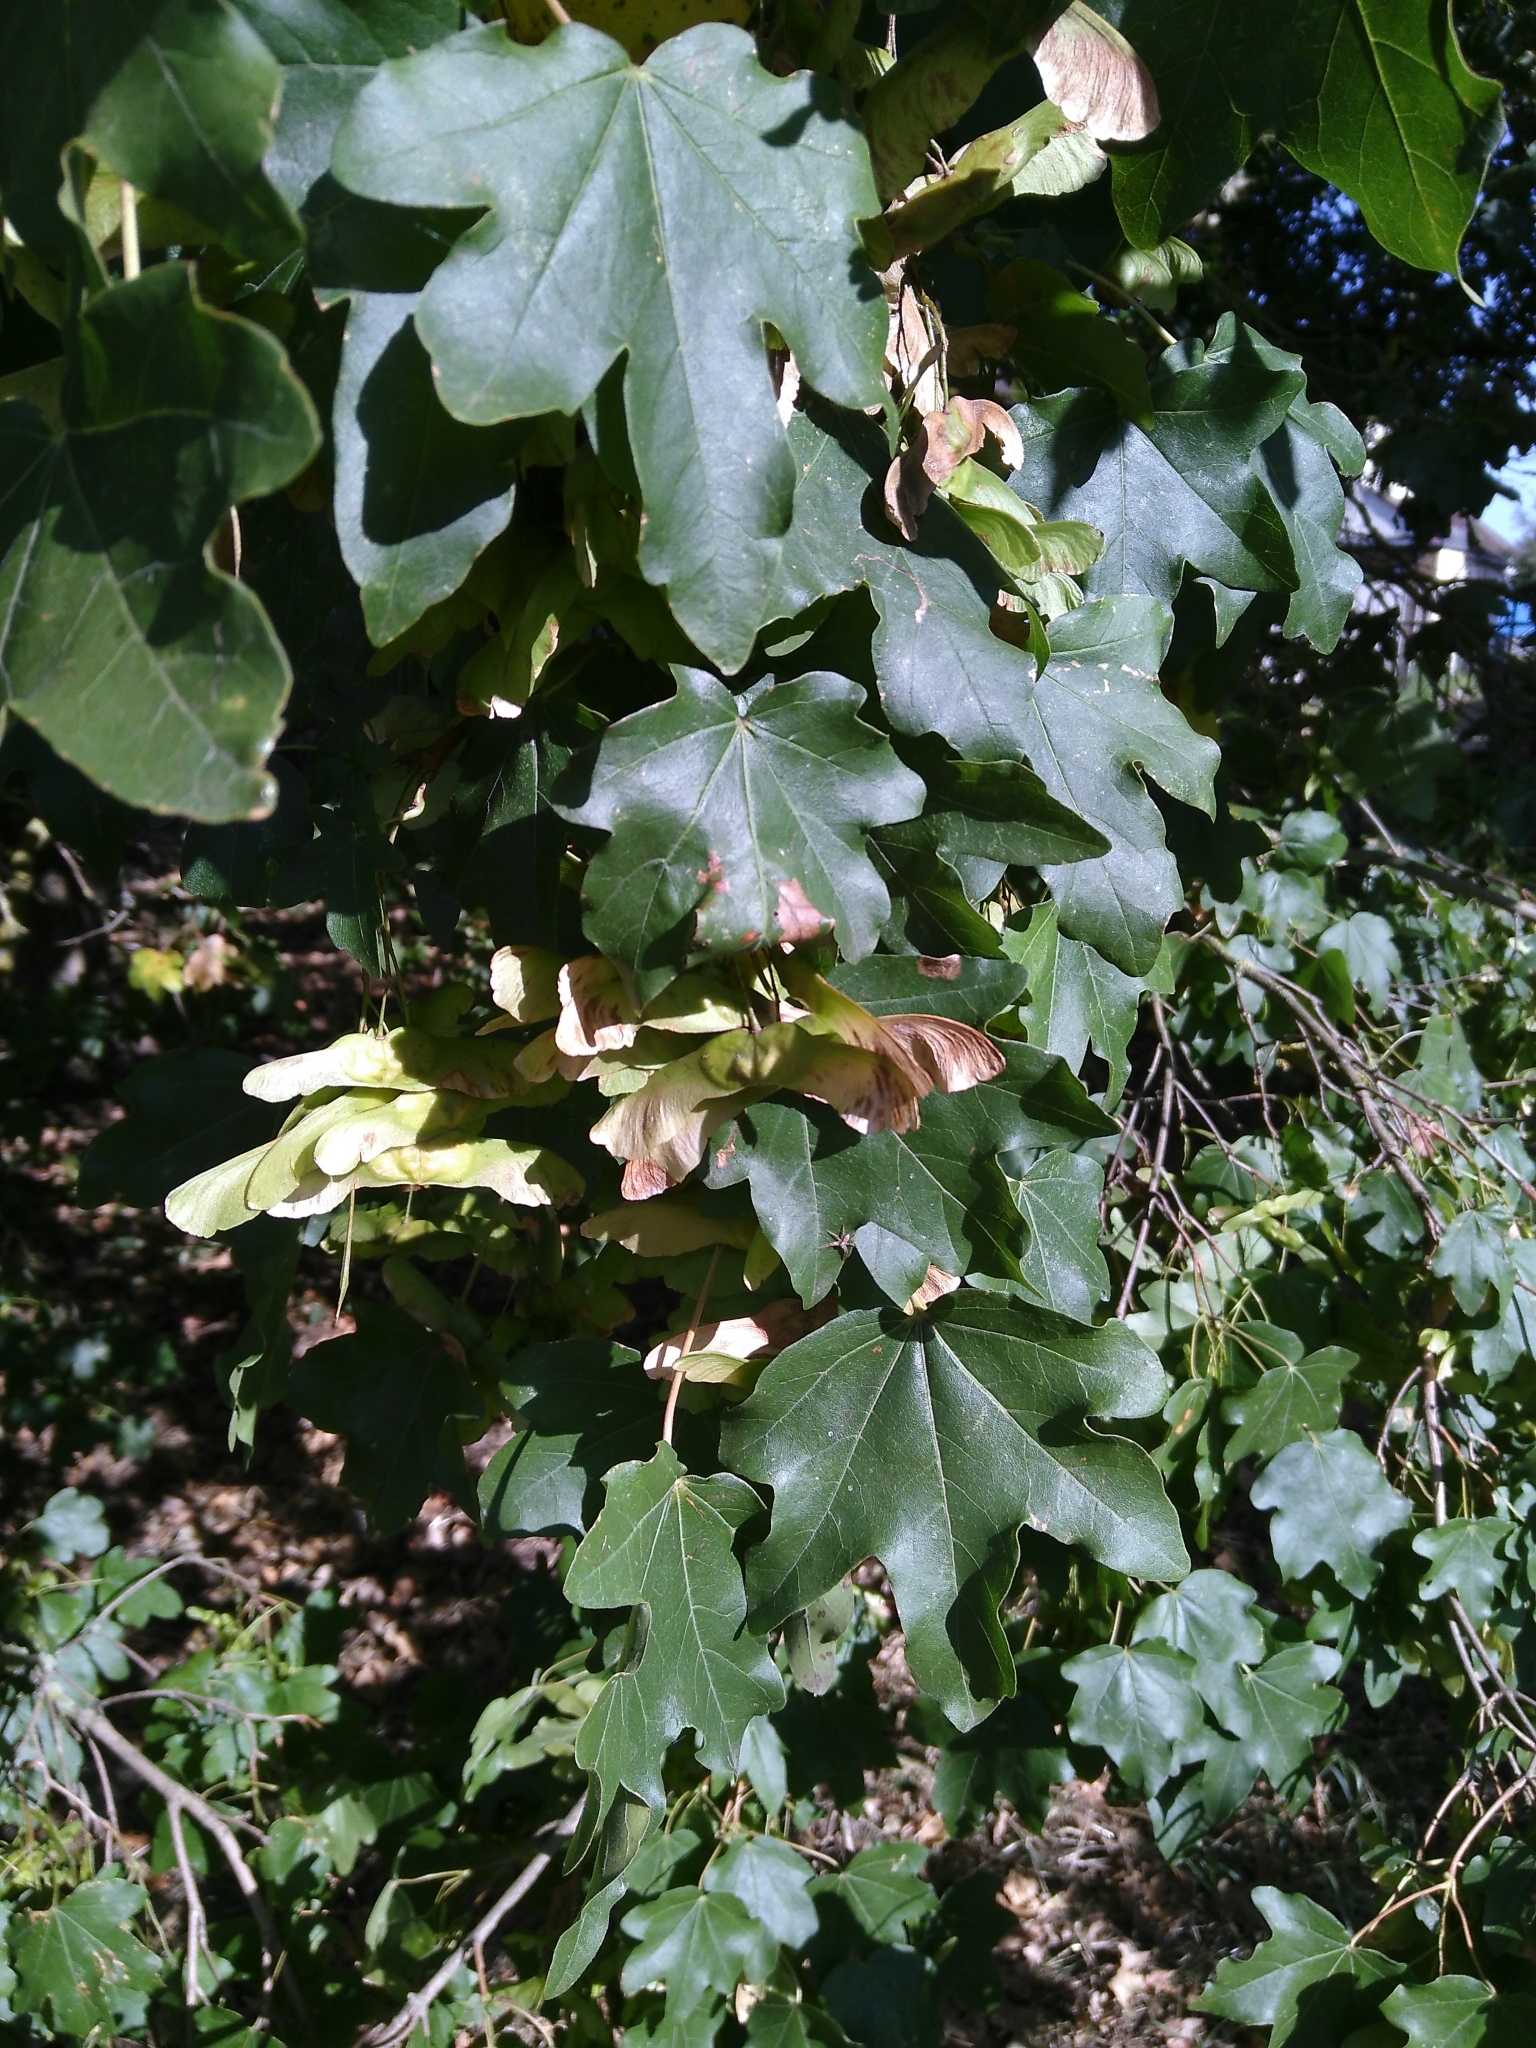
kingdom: Plantae
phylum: Tracheophyta
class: Magnoliopsida
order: Sapindales
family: Sapindaceae
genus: Acer
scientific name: Acer campestre
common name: Field maple
